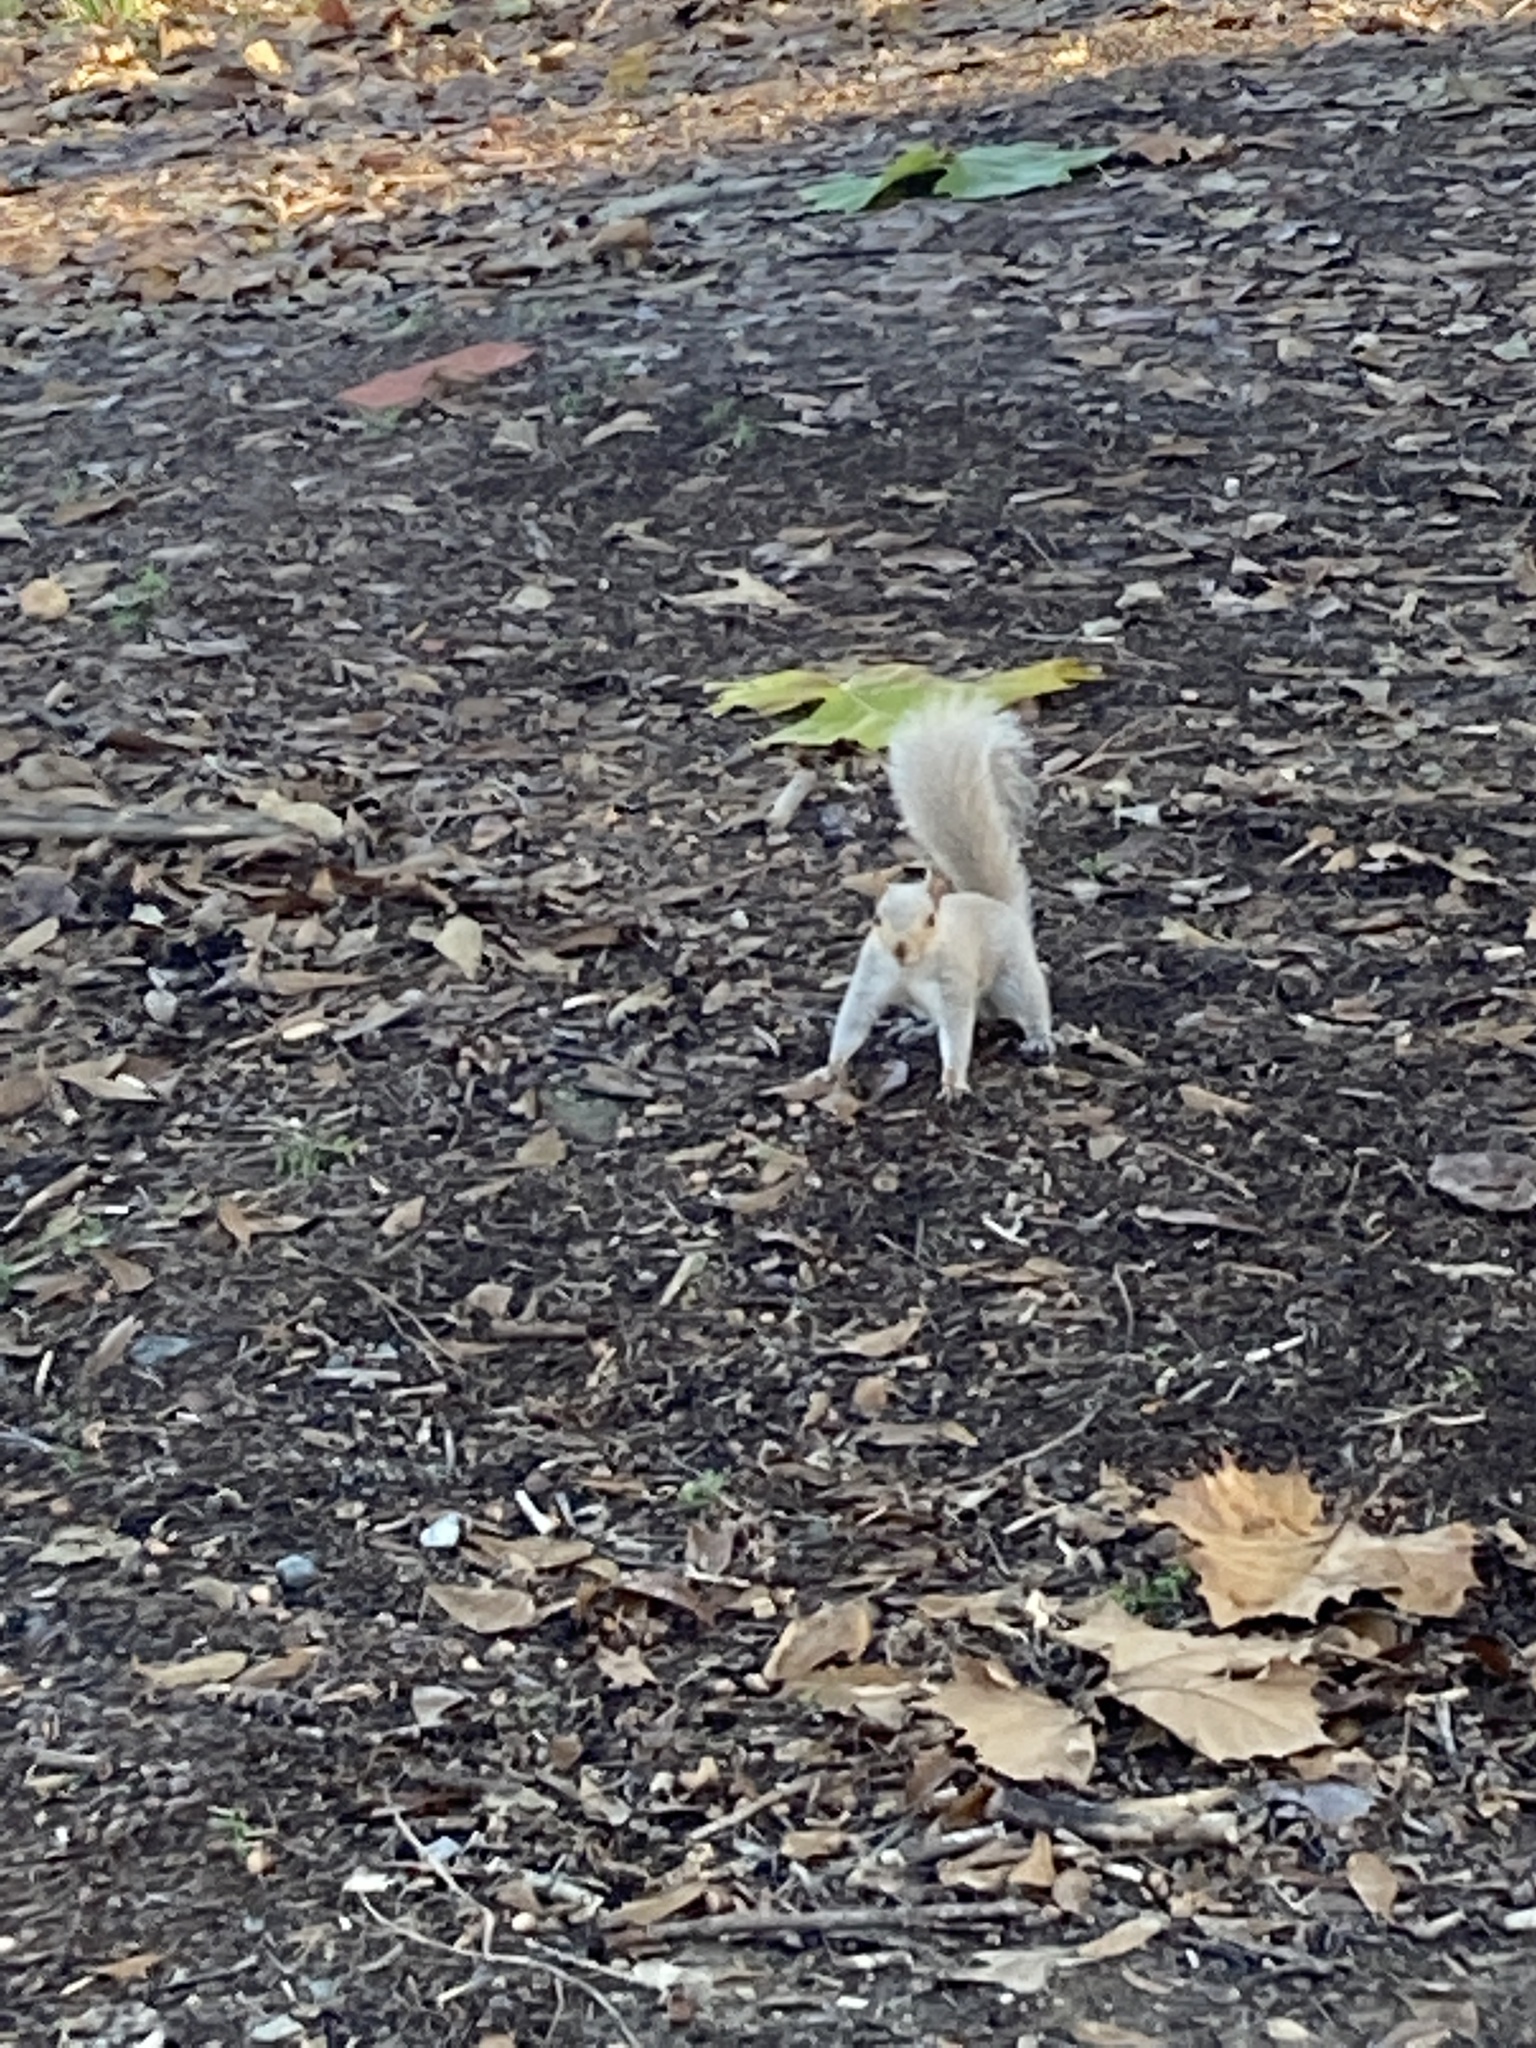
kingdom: Animalia
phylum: Chordata
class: Mammalia
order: Rodentia
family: Sciuridae
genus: Sciurus
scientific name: Sciurus carolinensis
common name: Eastern gray squirrel
